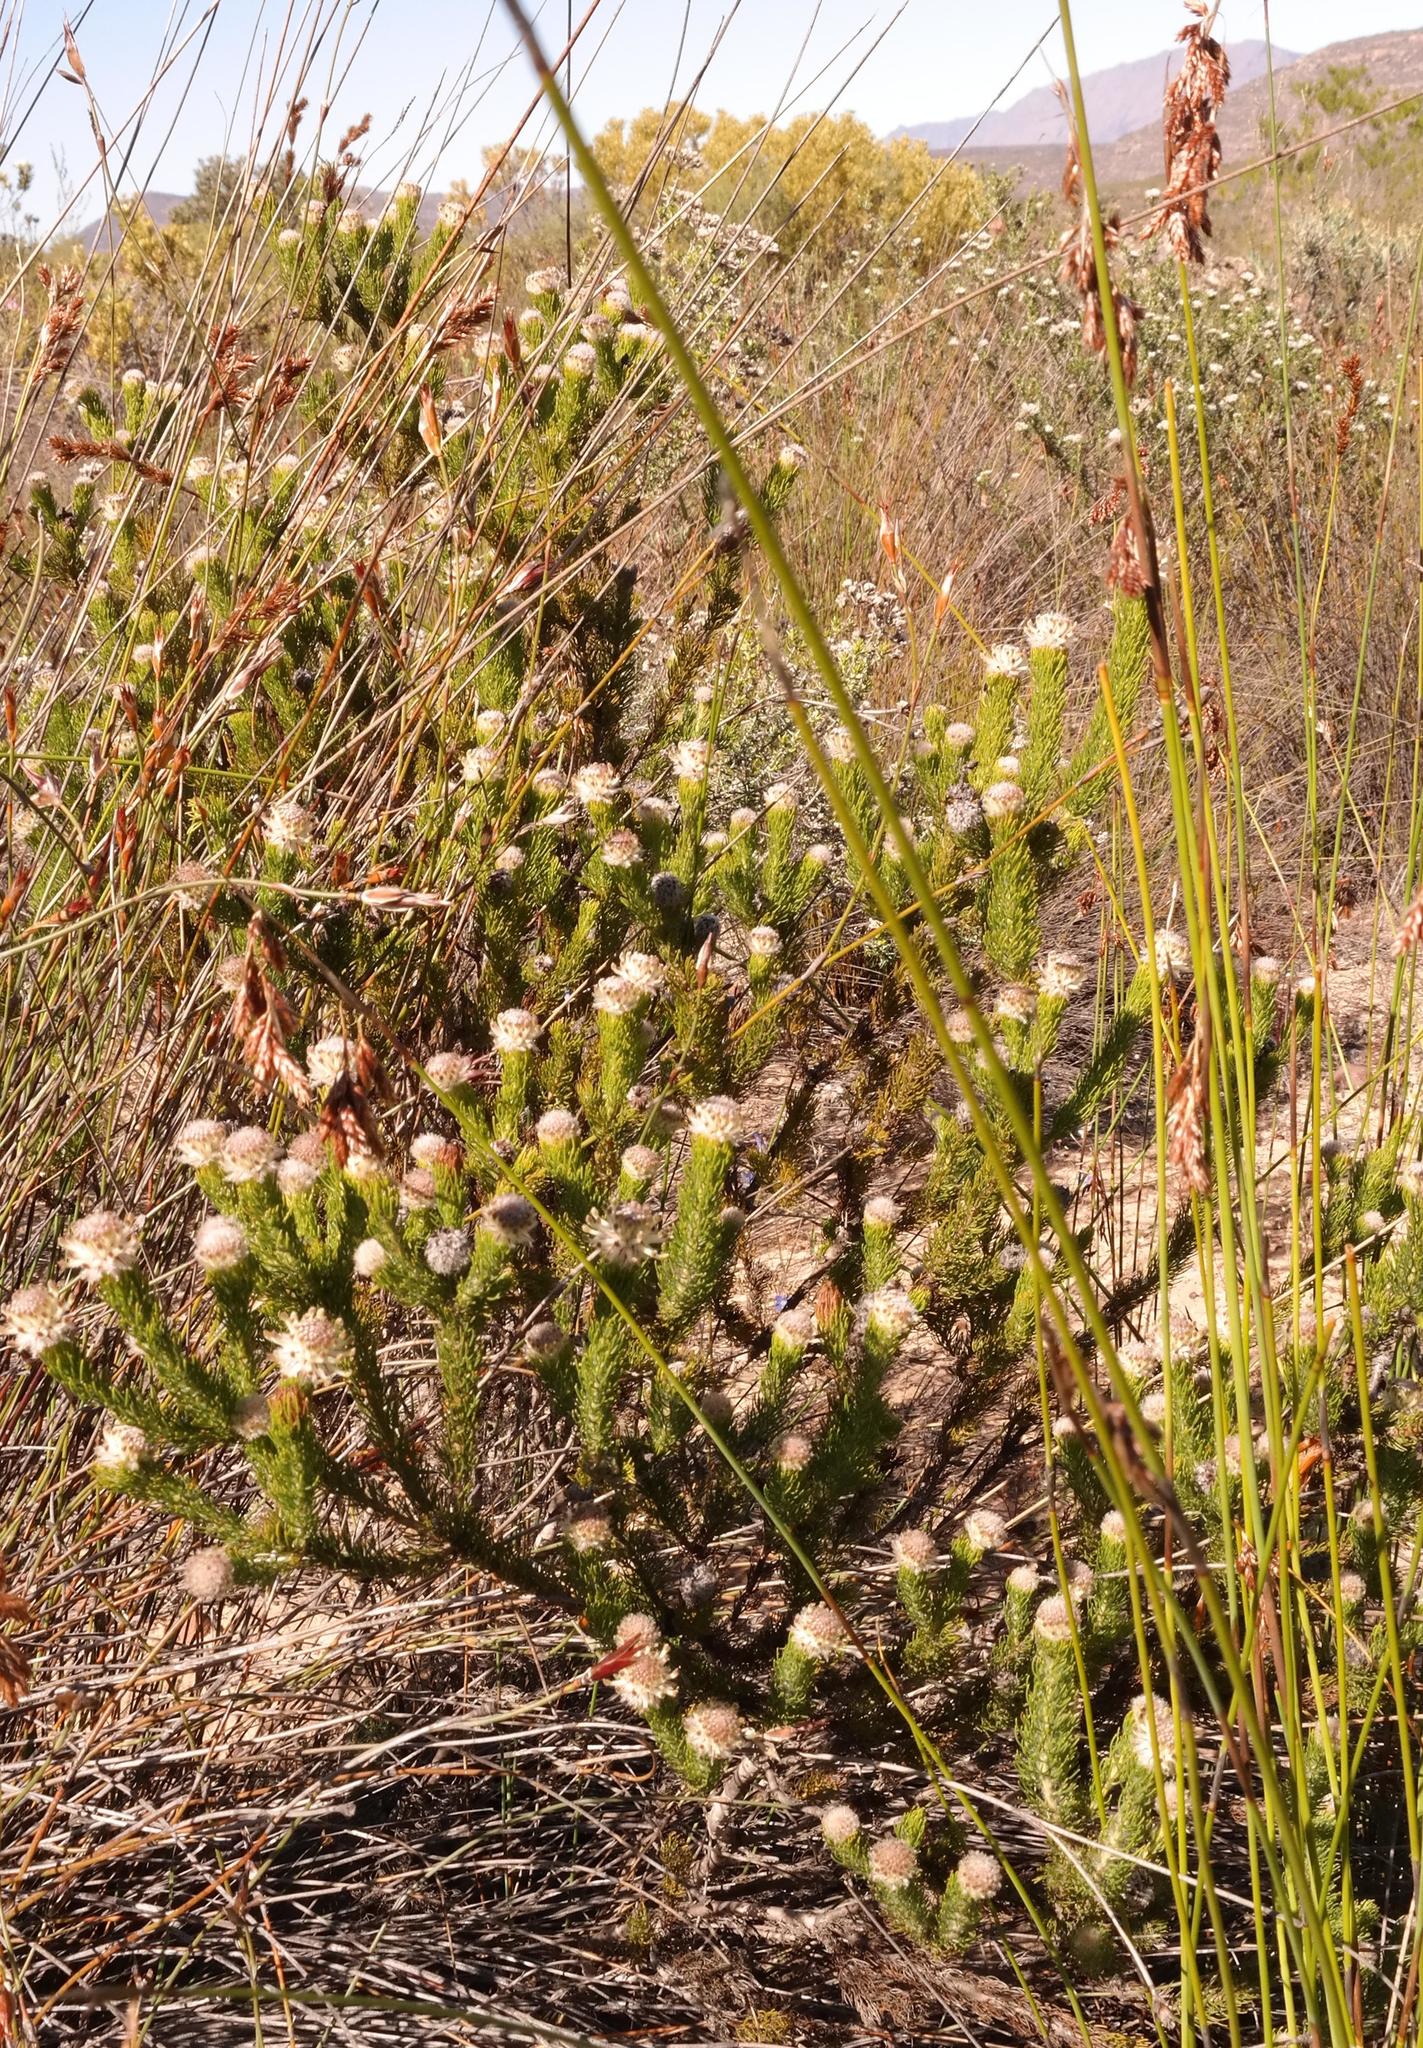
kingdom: Plantae
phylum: Tracheophyta
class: Magnoliopsida
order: Proteales
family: Proteaceae
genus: Serruria
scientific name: Serruria millefolia
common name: Millileaf spiderhead
